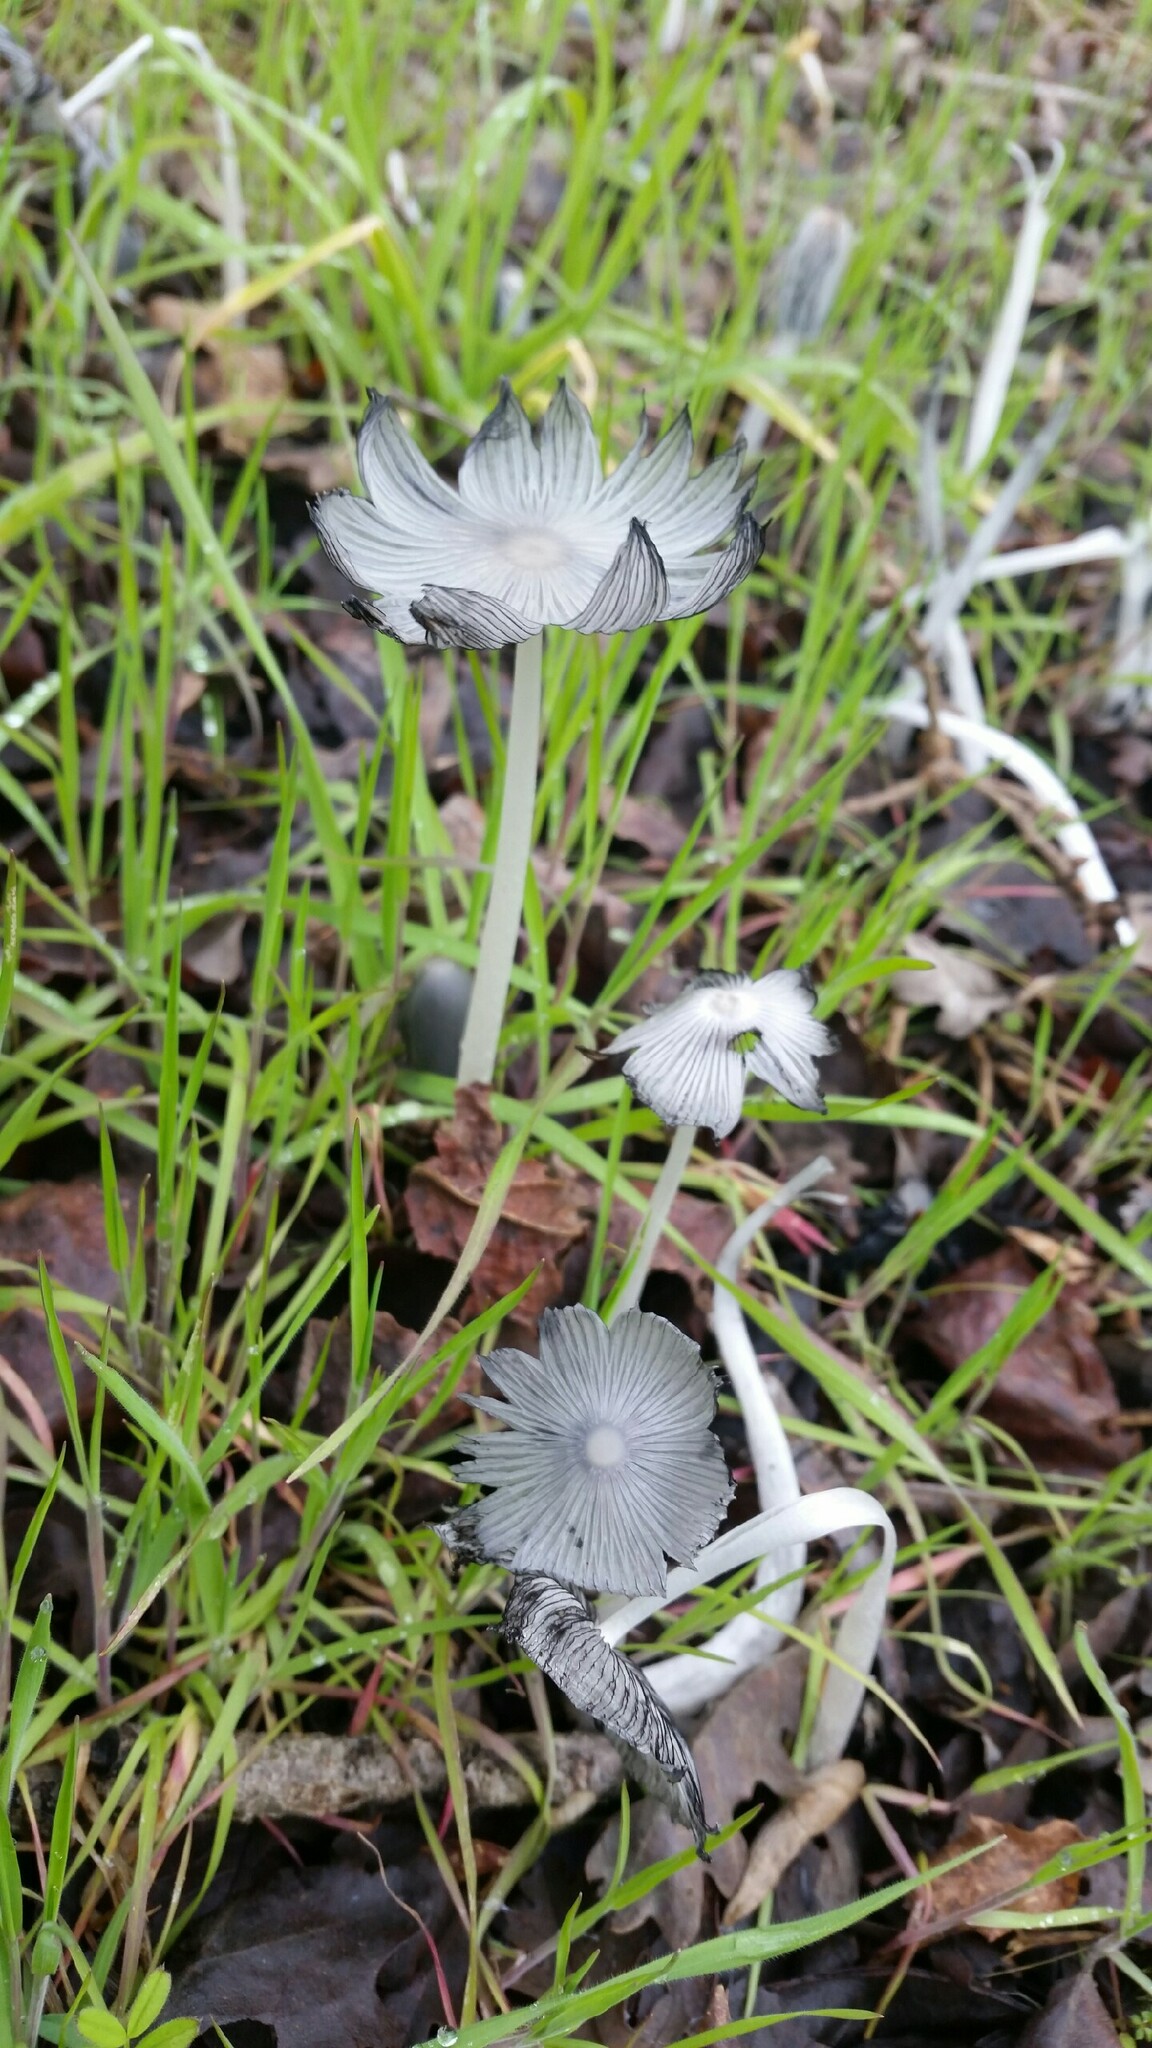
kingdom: Fungi
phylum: Basidiomycota
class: Agaricomycetes
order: Agaricales
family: Psathyrellaceae
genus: Coprinopsis
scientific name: Coprinopsis lagopus
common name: Hare'sfoot inkcap
